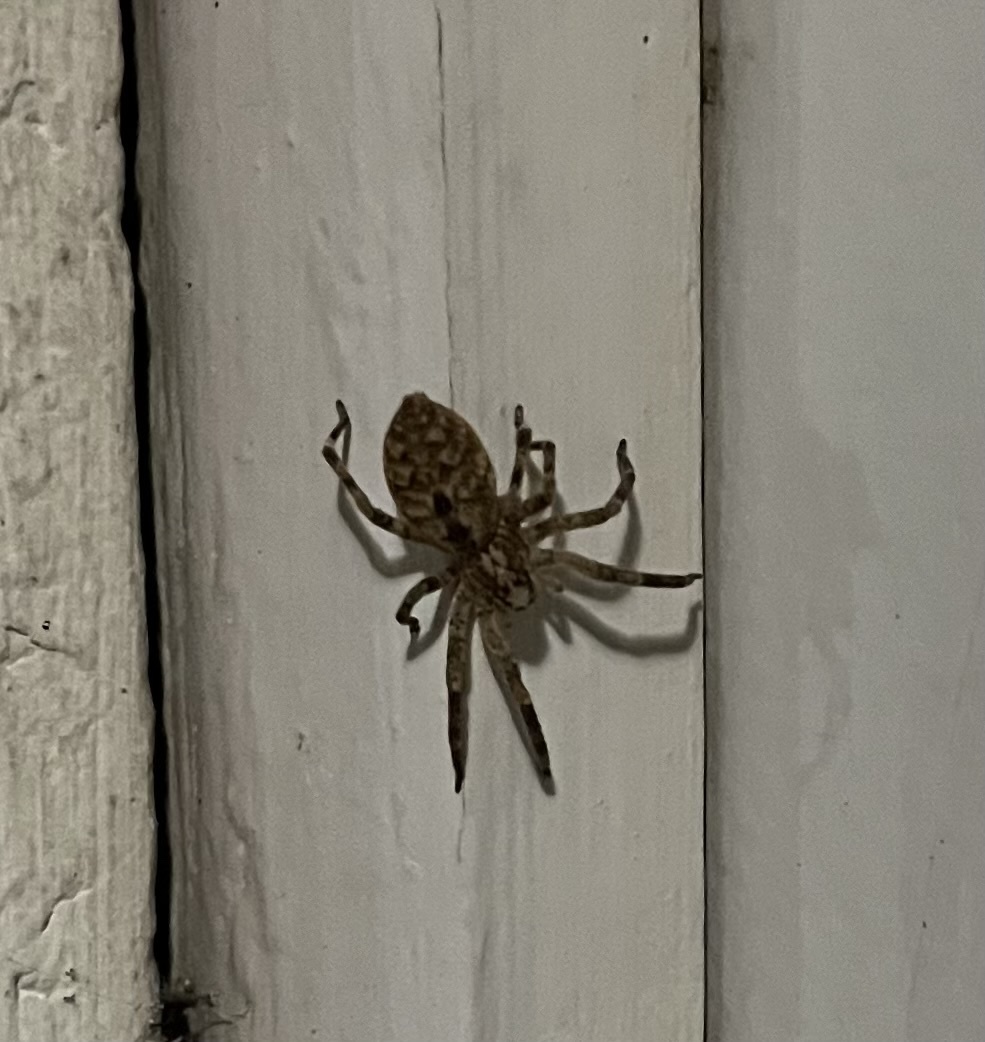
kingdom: Animalia
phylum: Arthropoda
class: Arachnida
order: Araneae
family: Zoropsidae
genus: Zoropsis
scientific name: Zoropsis spinimana
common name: Zoropsid spider
